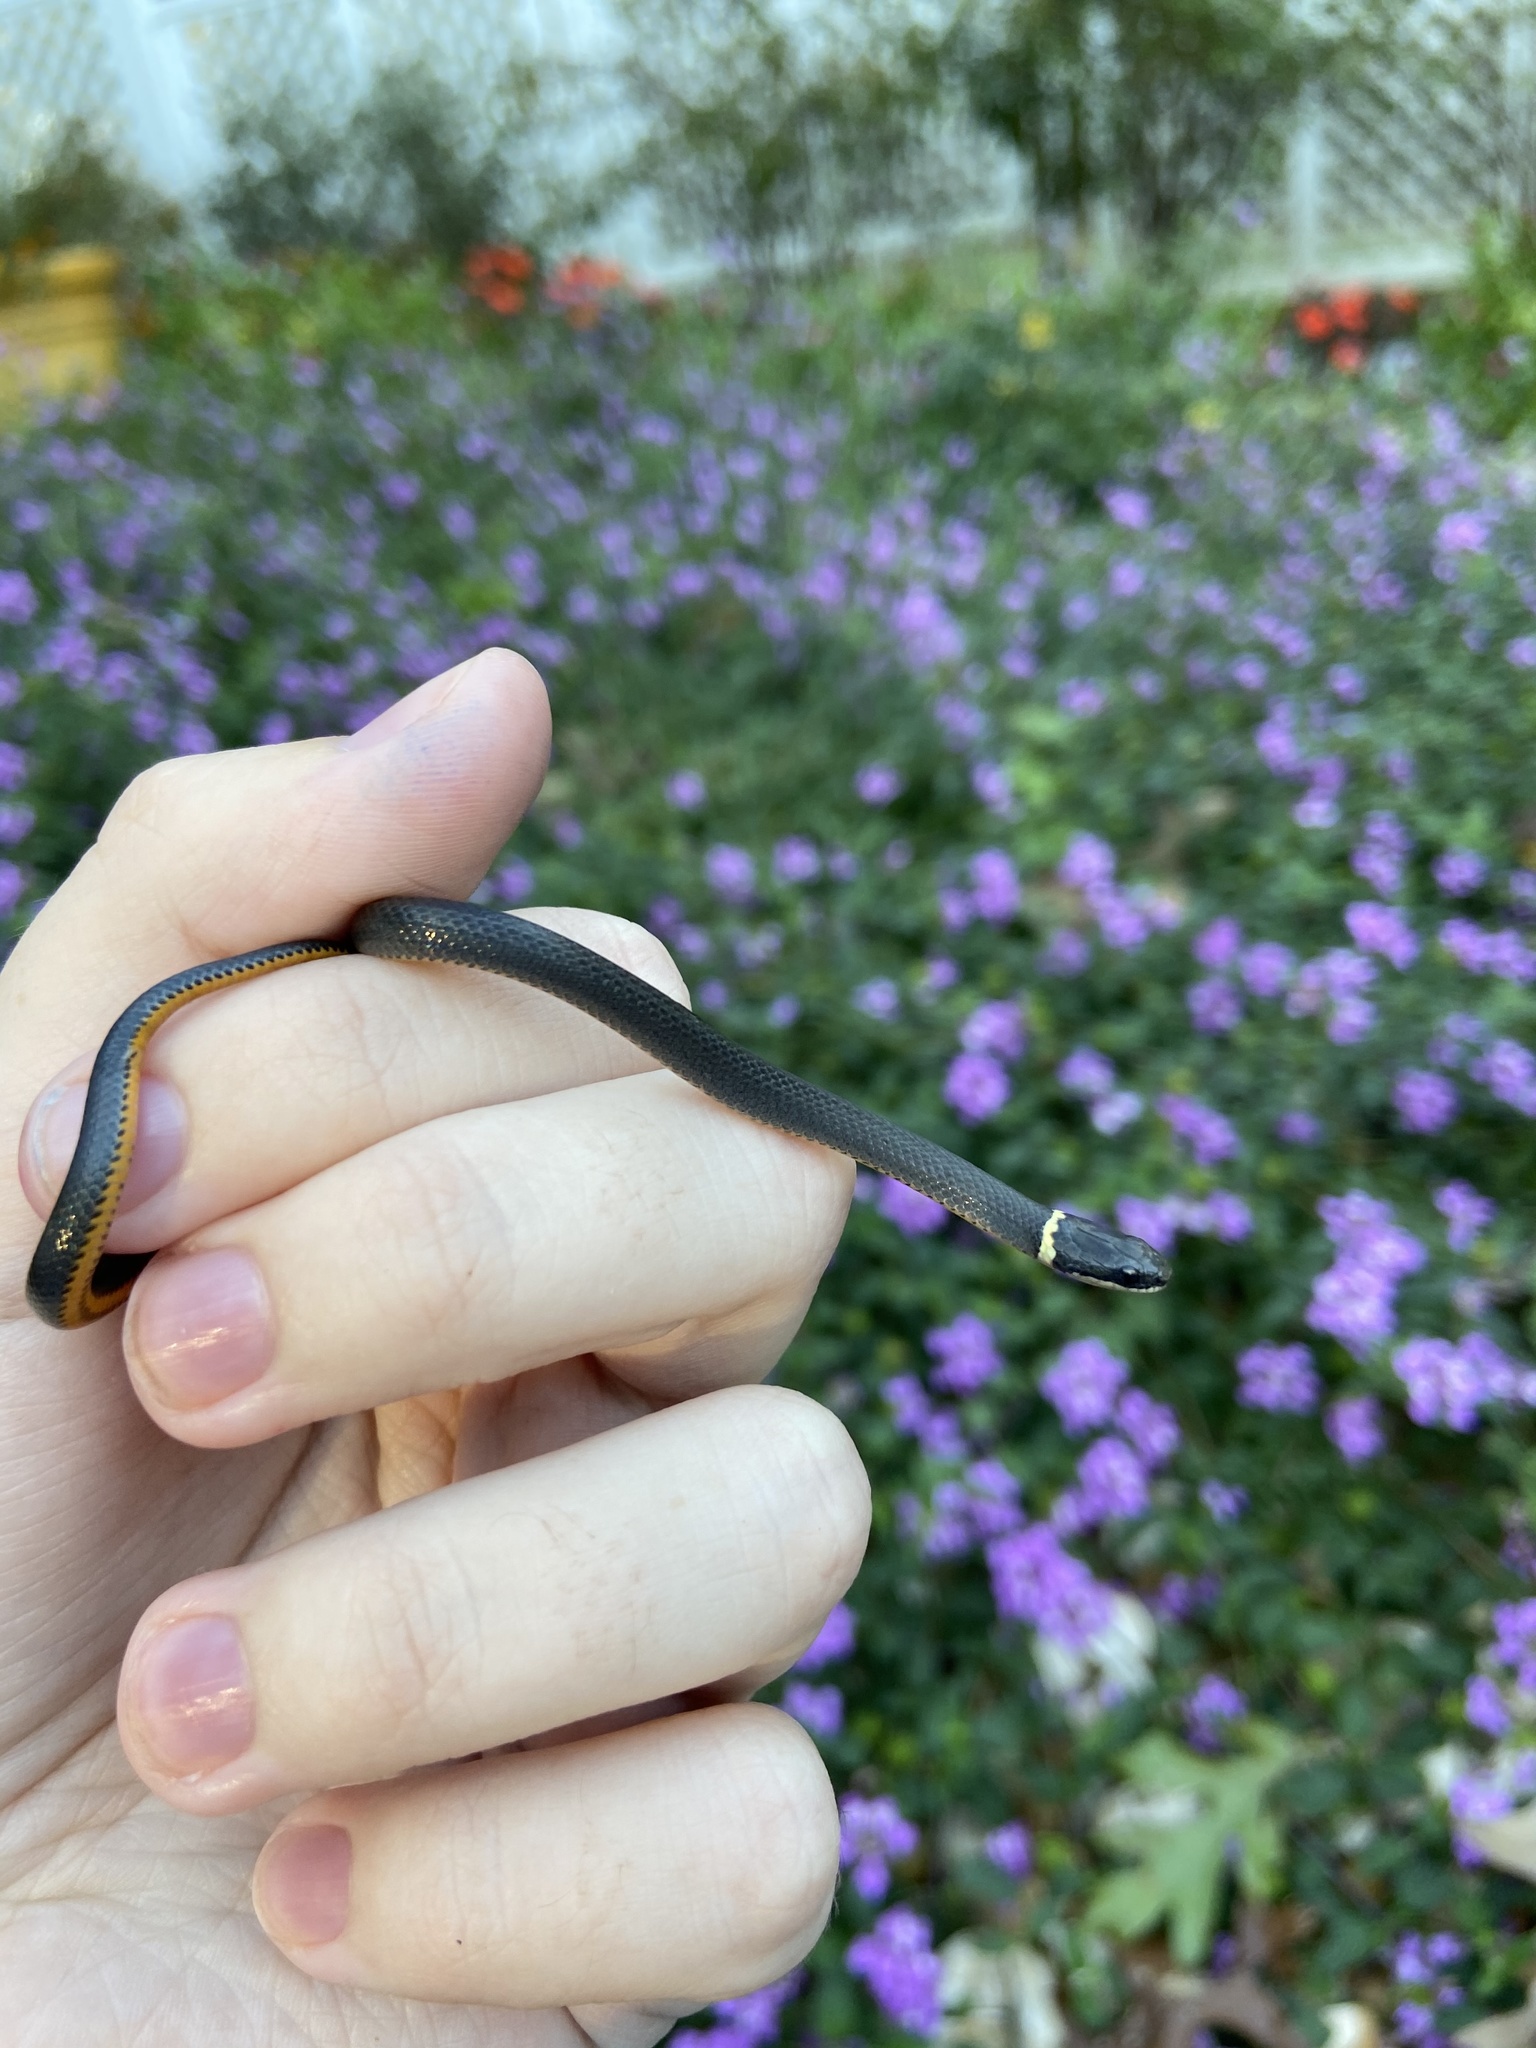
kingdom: Animalia
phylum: Chordata
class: Squamata
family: Colubridae
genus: Diadophis
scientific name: Diadophis punctatus
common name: Ringneck snake
